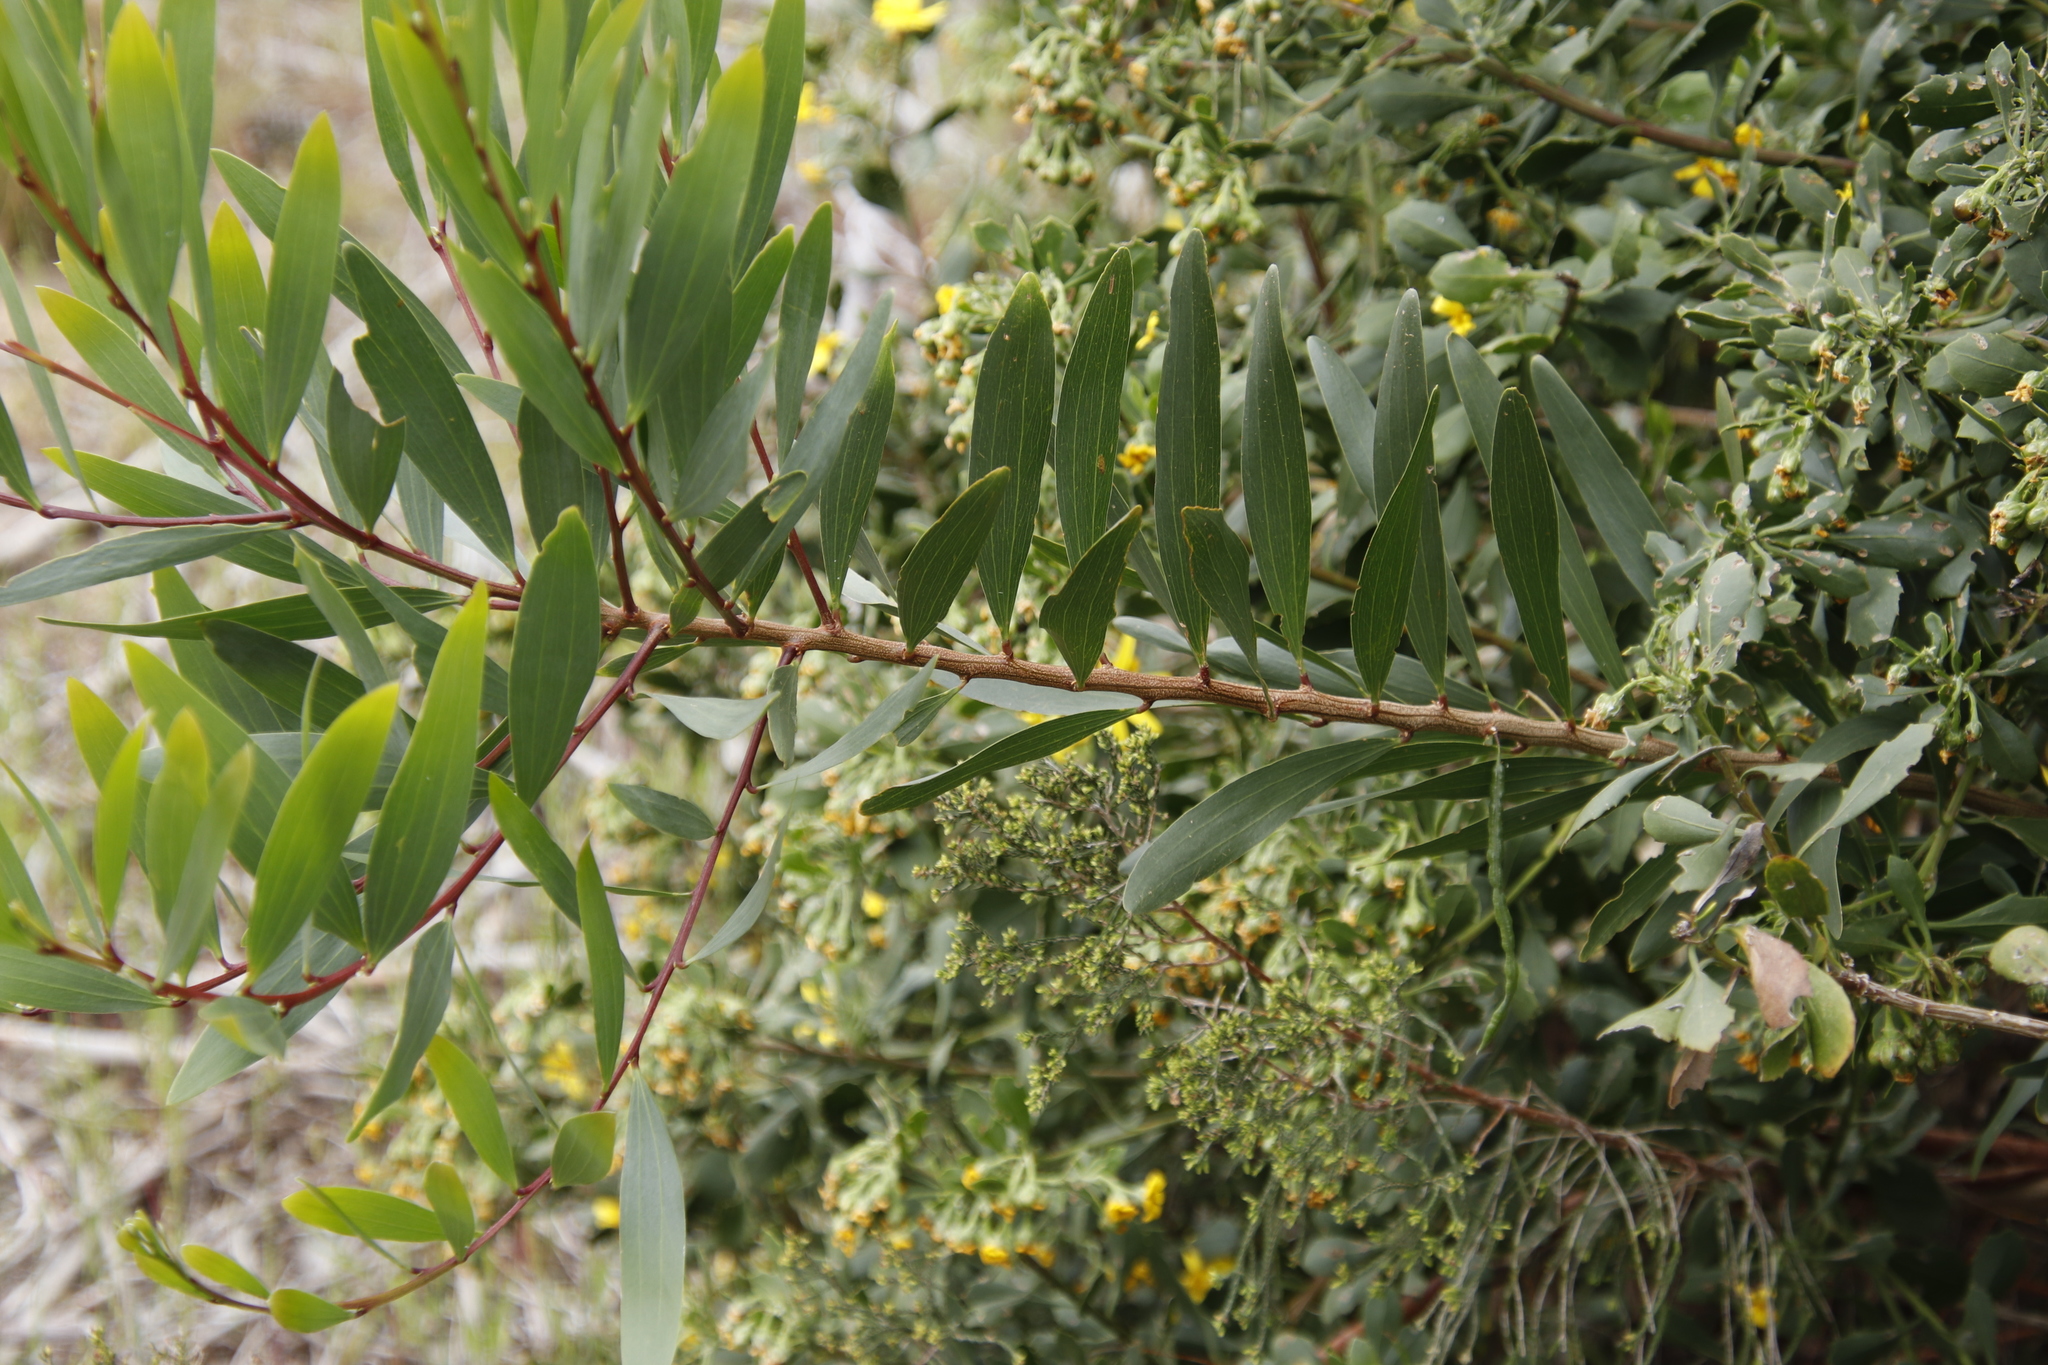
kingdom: Plantae
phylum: Tracheophyta
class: Magnoliopsida
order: Fabales
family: Fabaceae
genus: Acacia
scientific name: Acacia longifolia
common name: Sydney golden wattle
